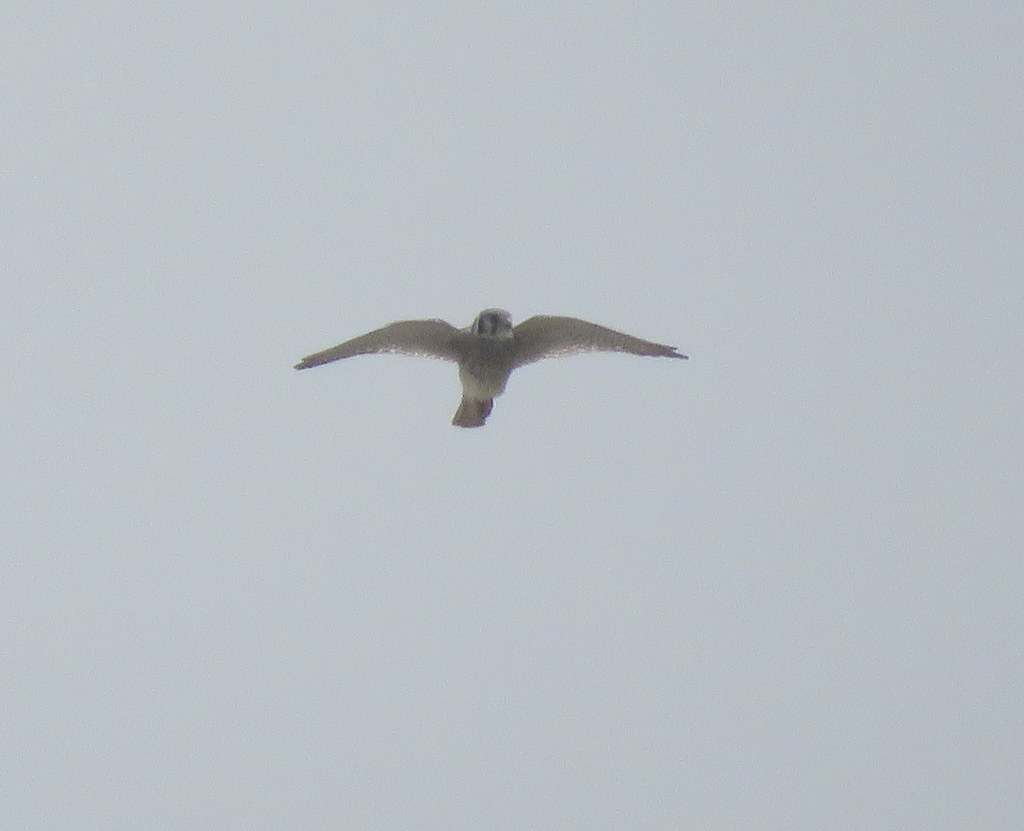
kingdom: Animalia
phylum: Chordata
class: Aves
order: Falconiformes
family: Falconidae
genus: Falco
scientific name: Falco sparverius
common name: American kestrel
